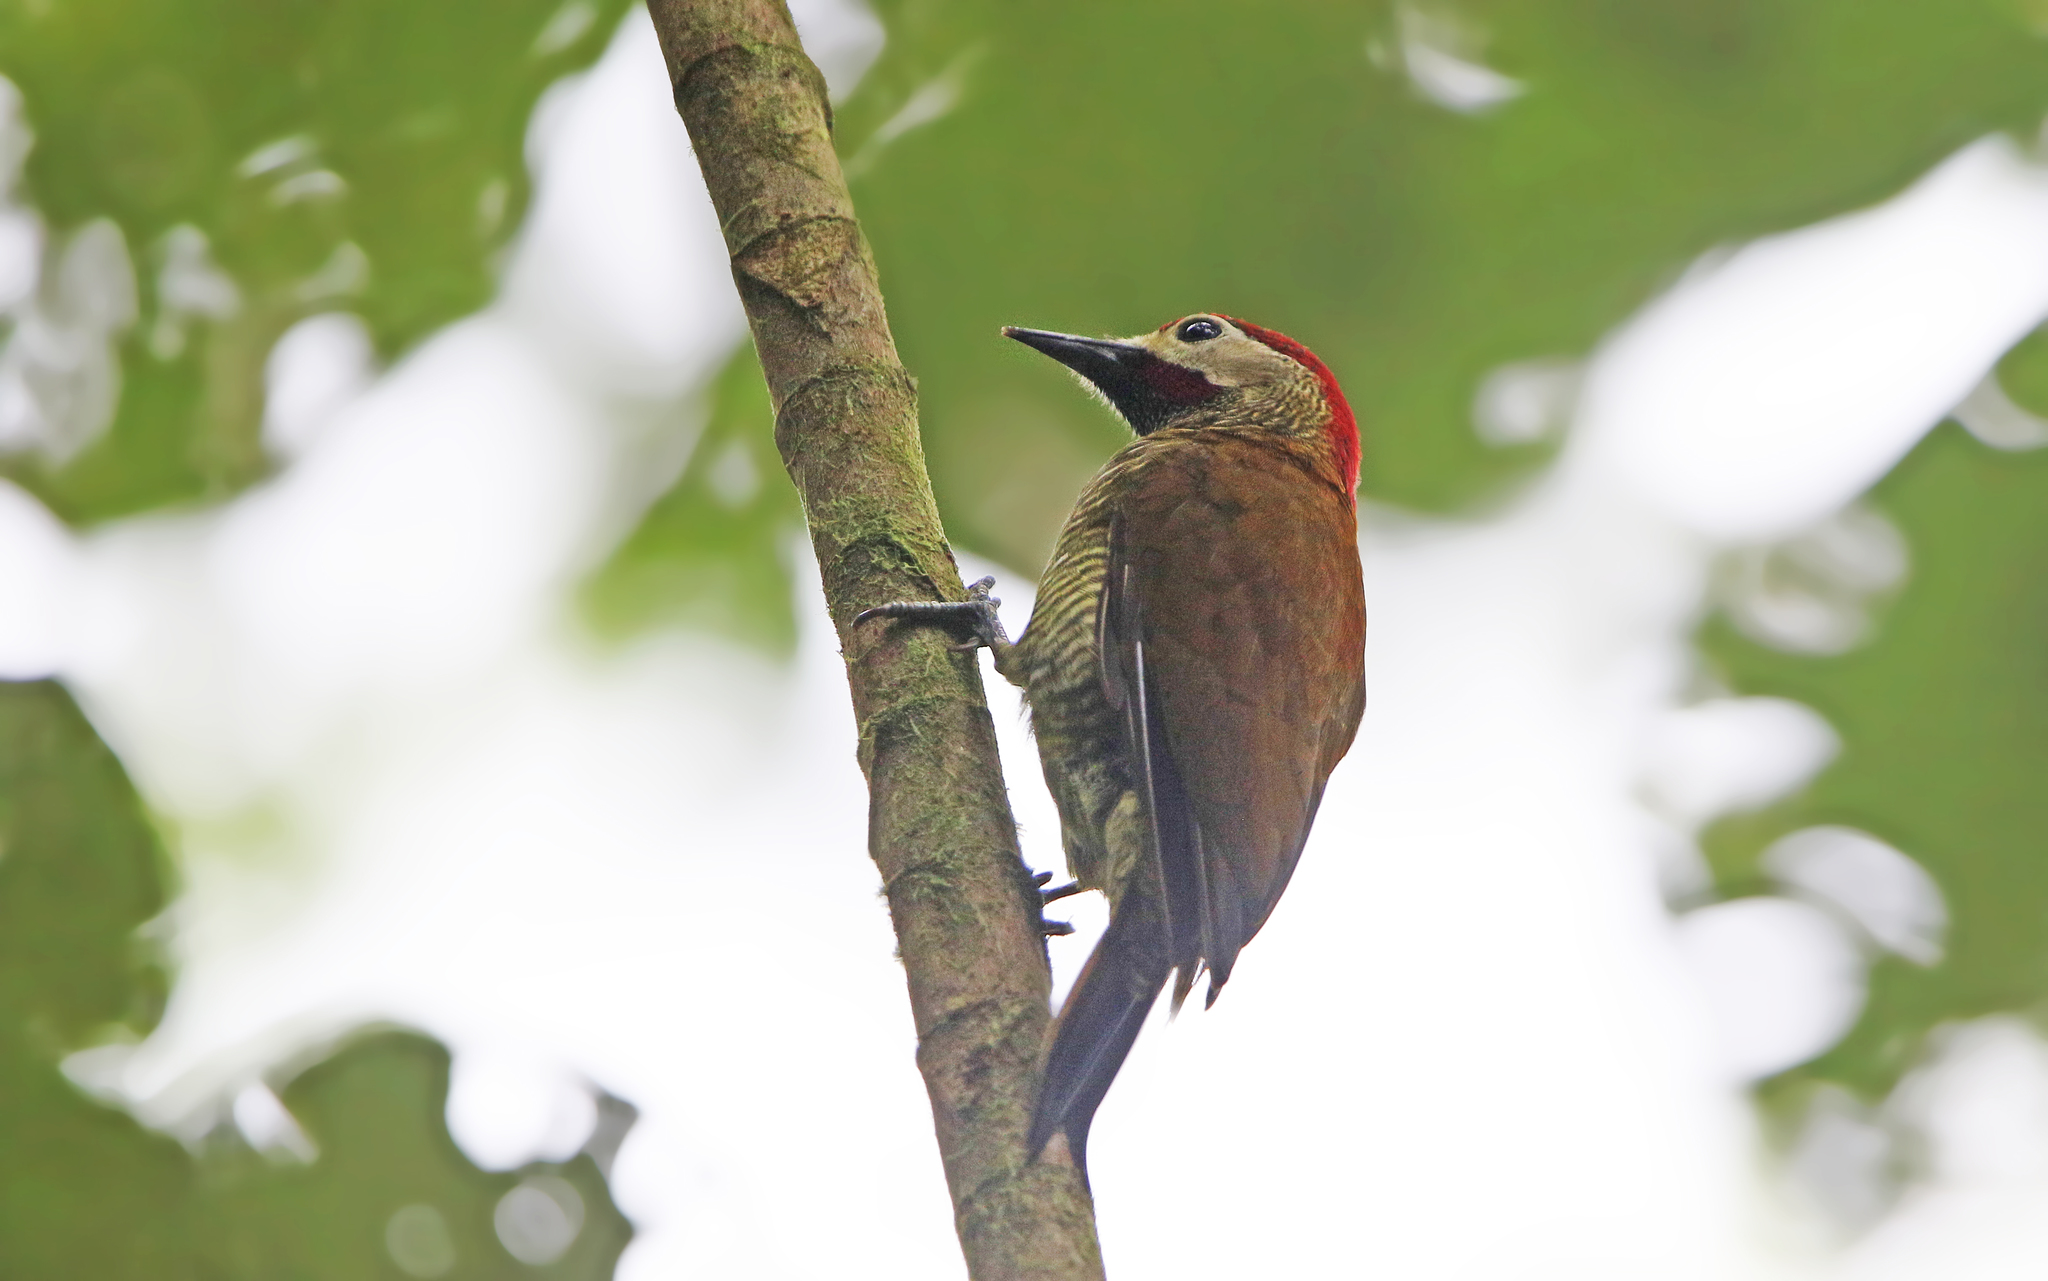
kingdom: Animalia
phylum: Chordata
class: Aves
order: Piciformes
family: Picidae
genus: Colaptes
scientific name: Colaptes rubiginosus
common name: Golden-olive woodpecker
